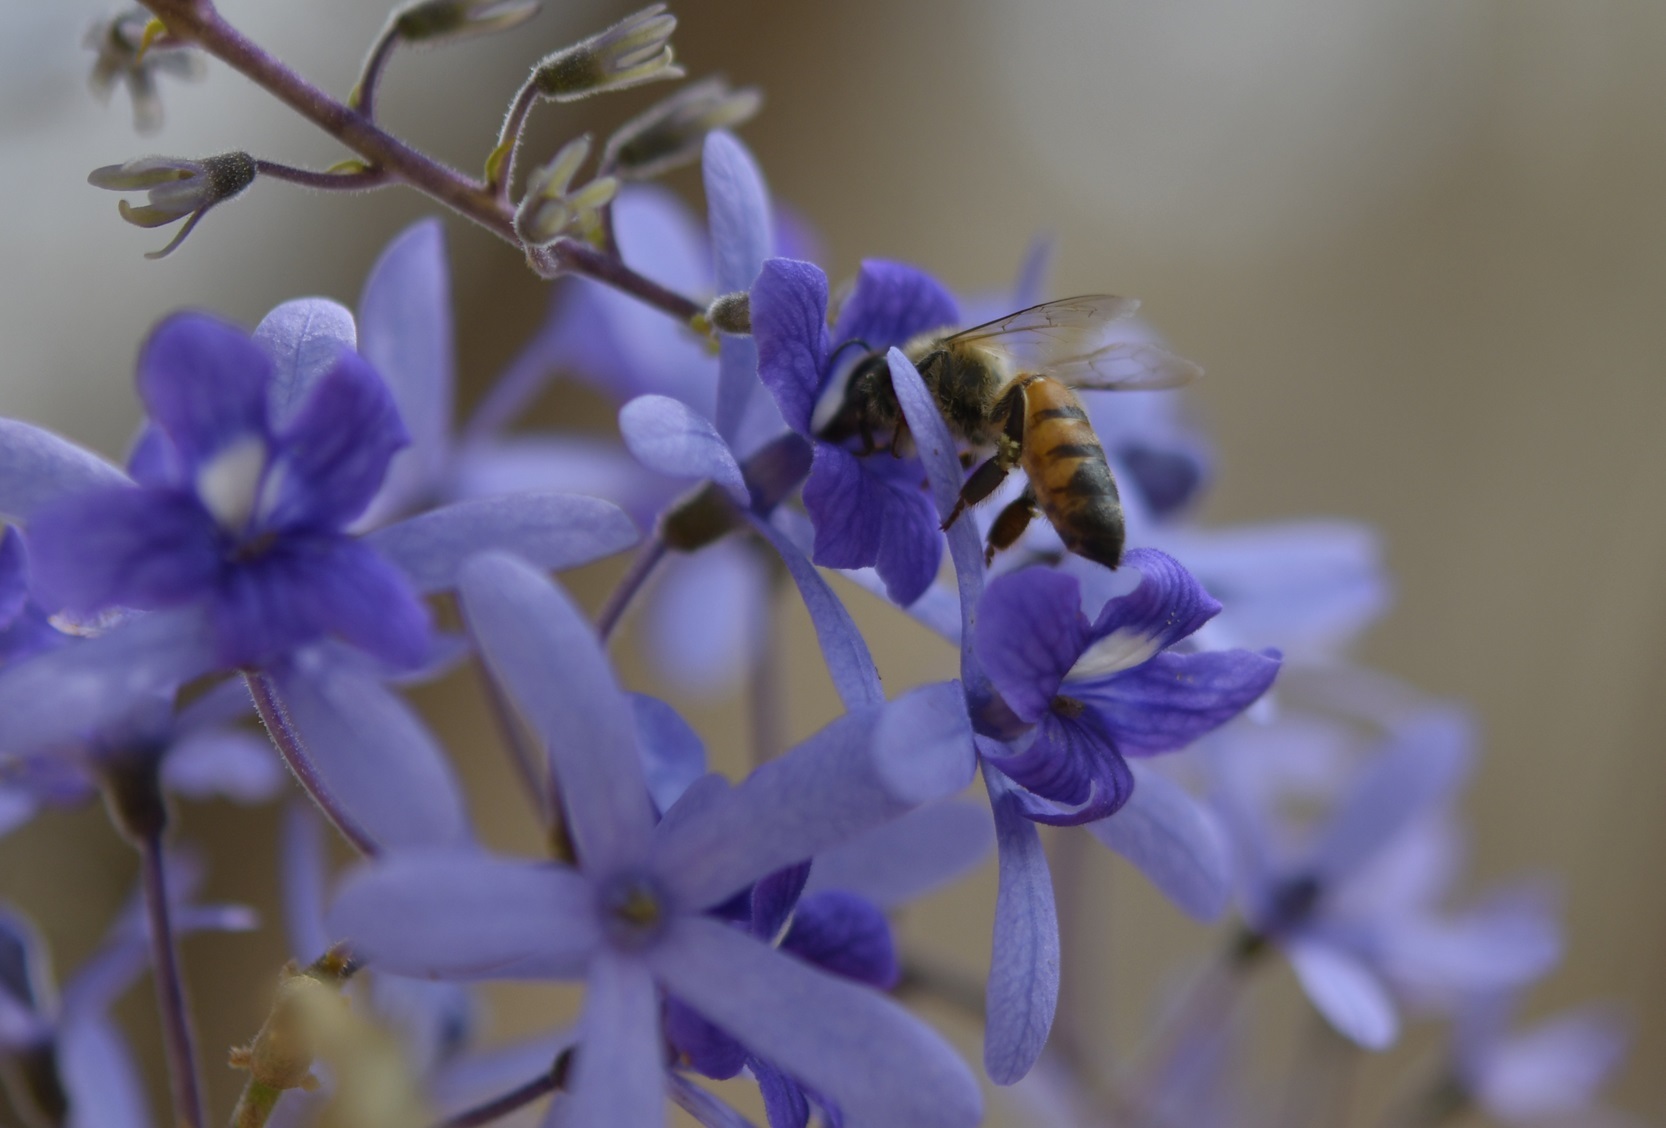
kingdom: Animalia
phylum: Arthropoda
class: Insecta
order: Hymenoptera
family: Apidae
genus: Apis
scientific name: Apis mellifera
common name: Honey bee
